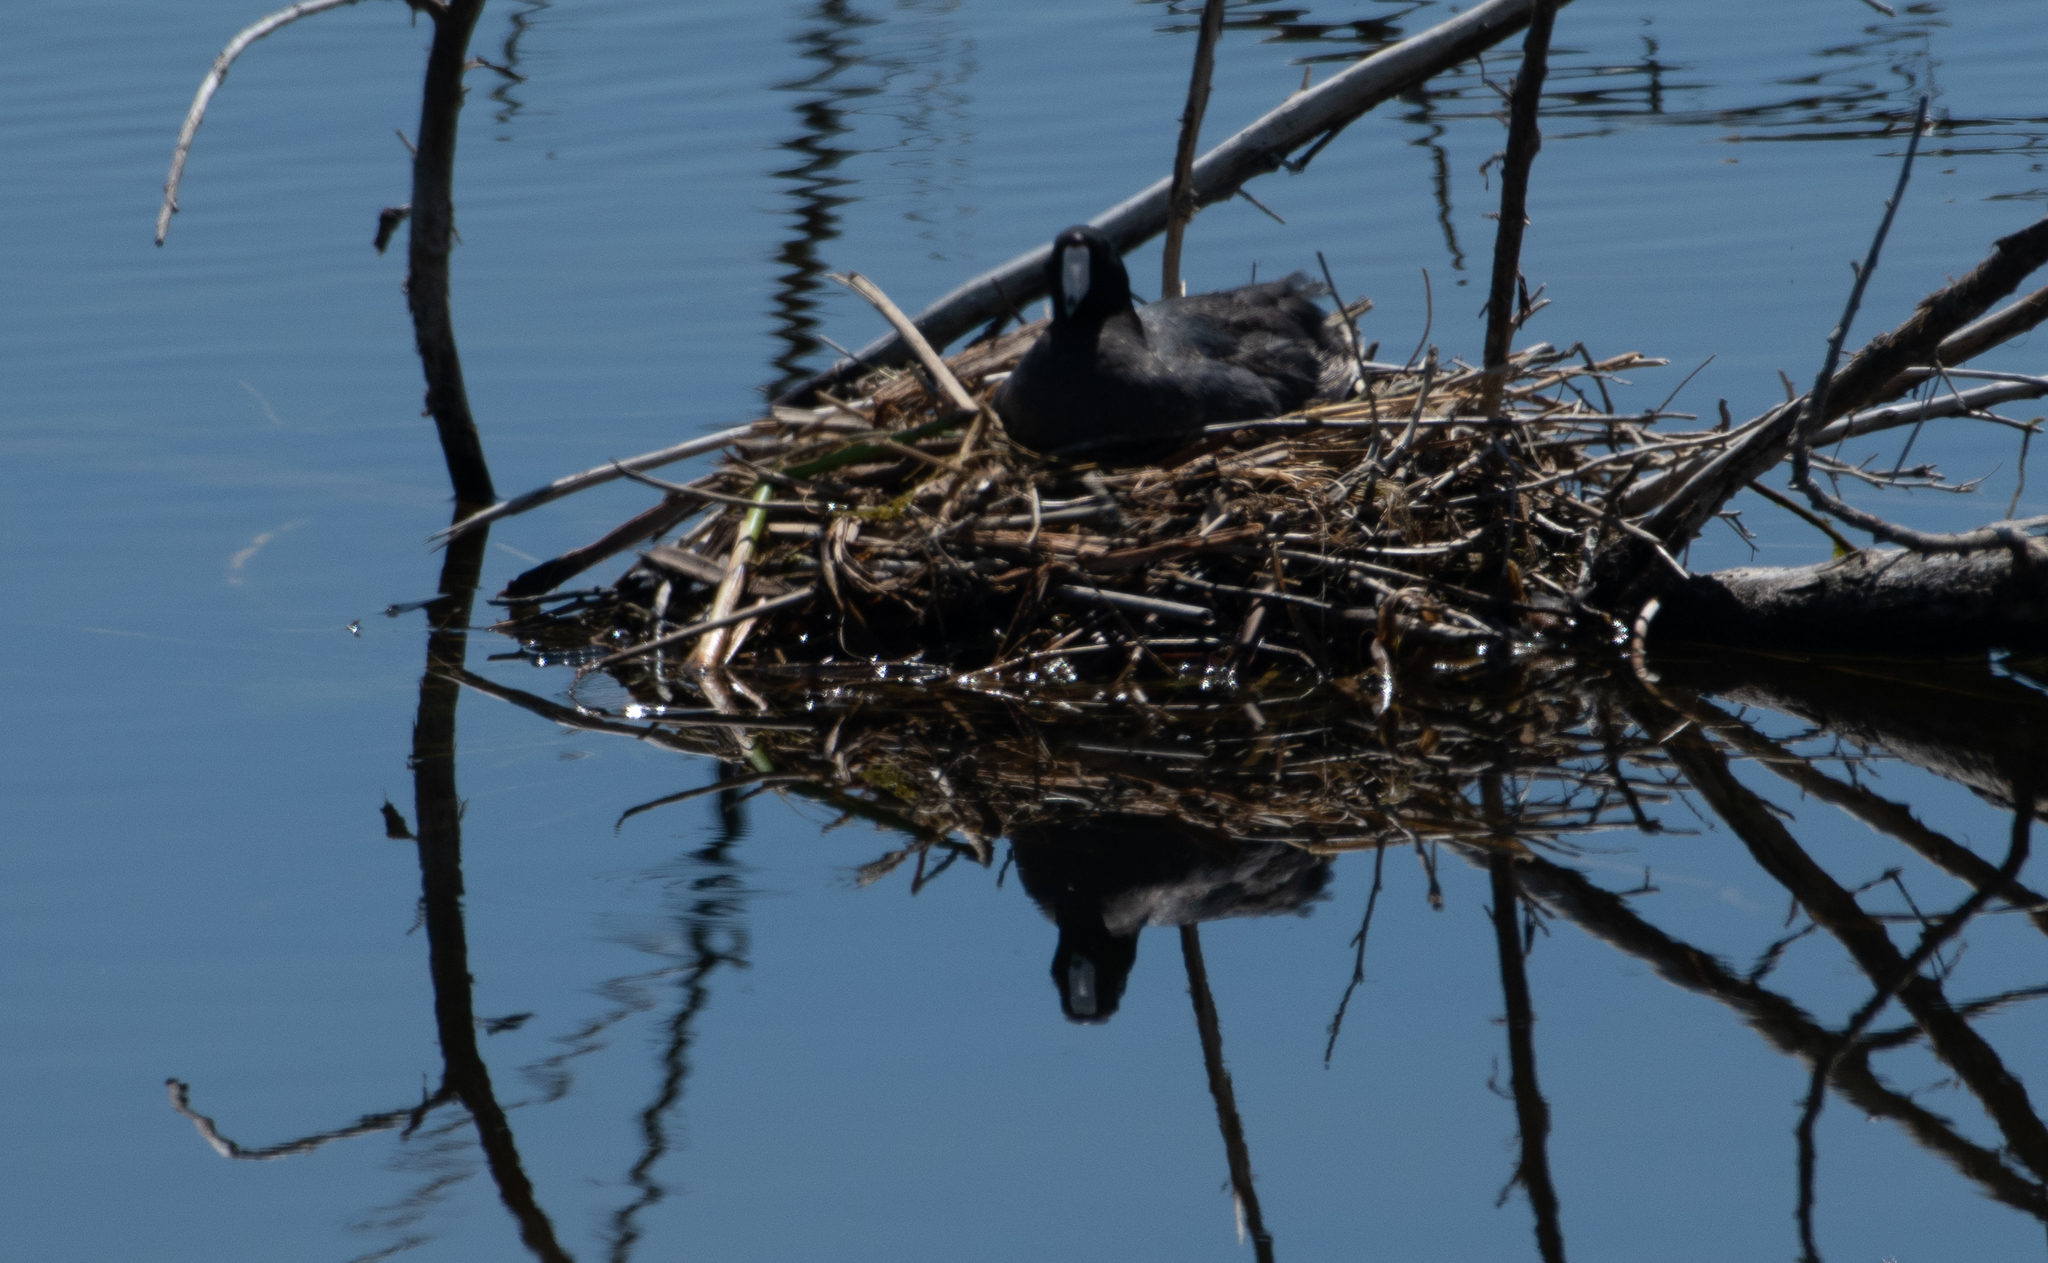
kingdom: Animalia
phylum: Chordata
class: Aves
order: Gruiformes
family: Rallidae
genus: Fulica
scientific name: Fulica americana
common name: American coot
